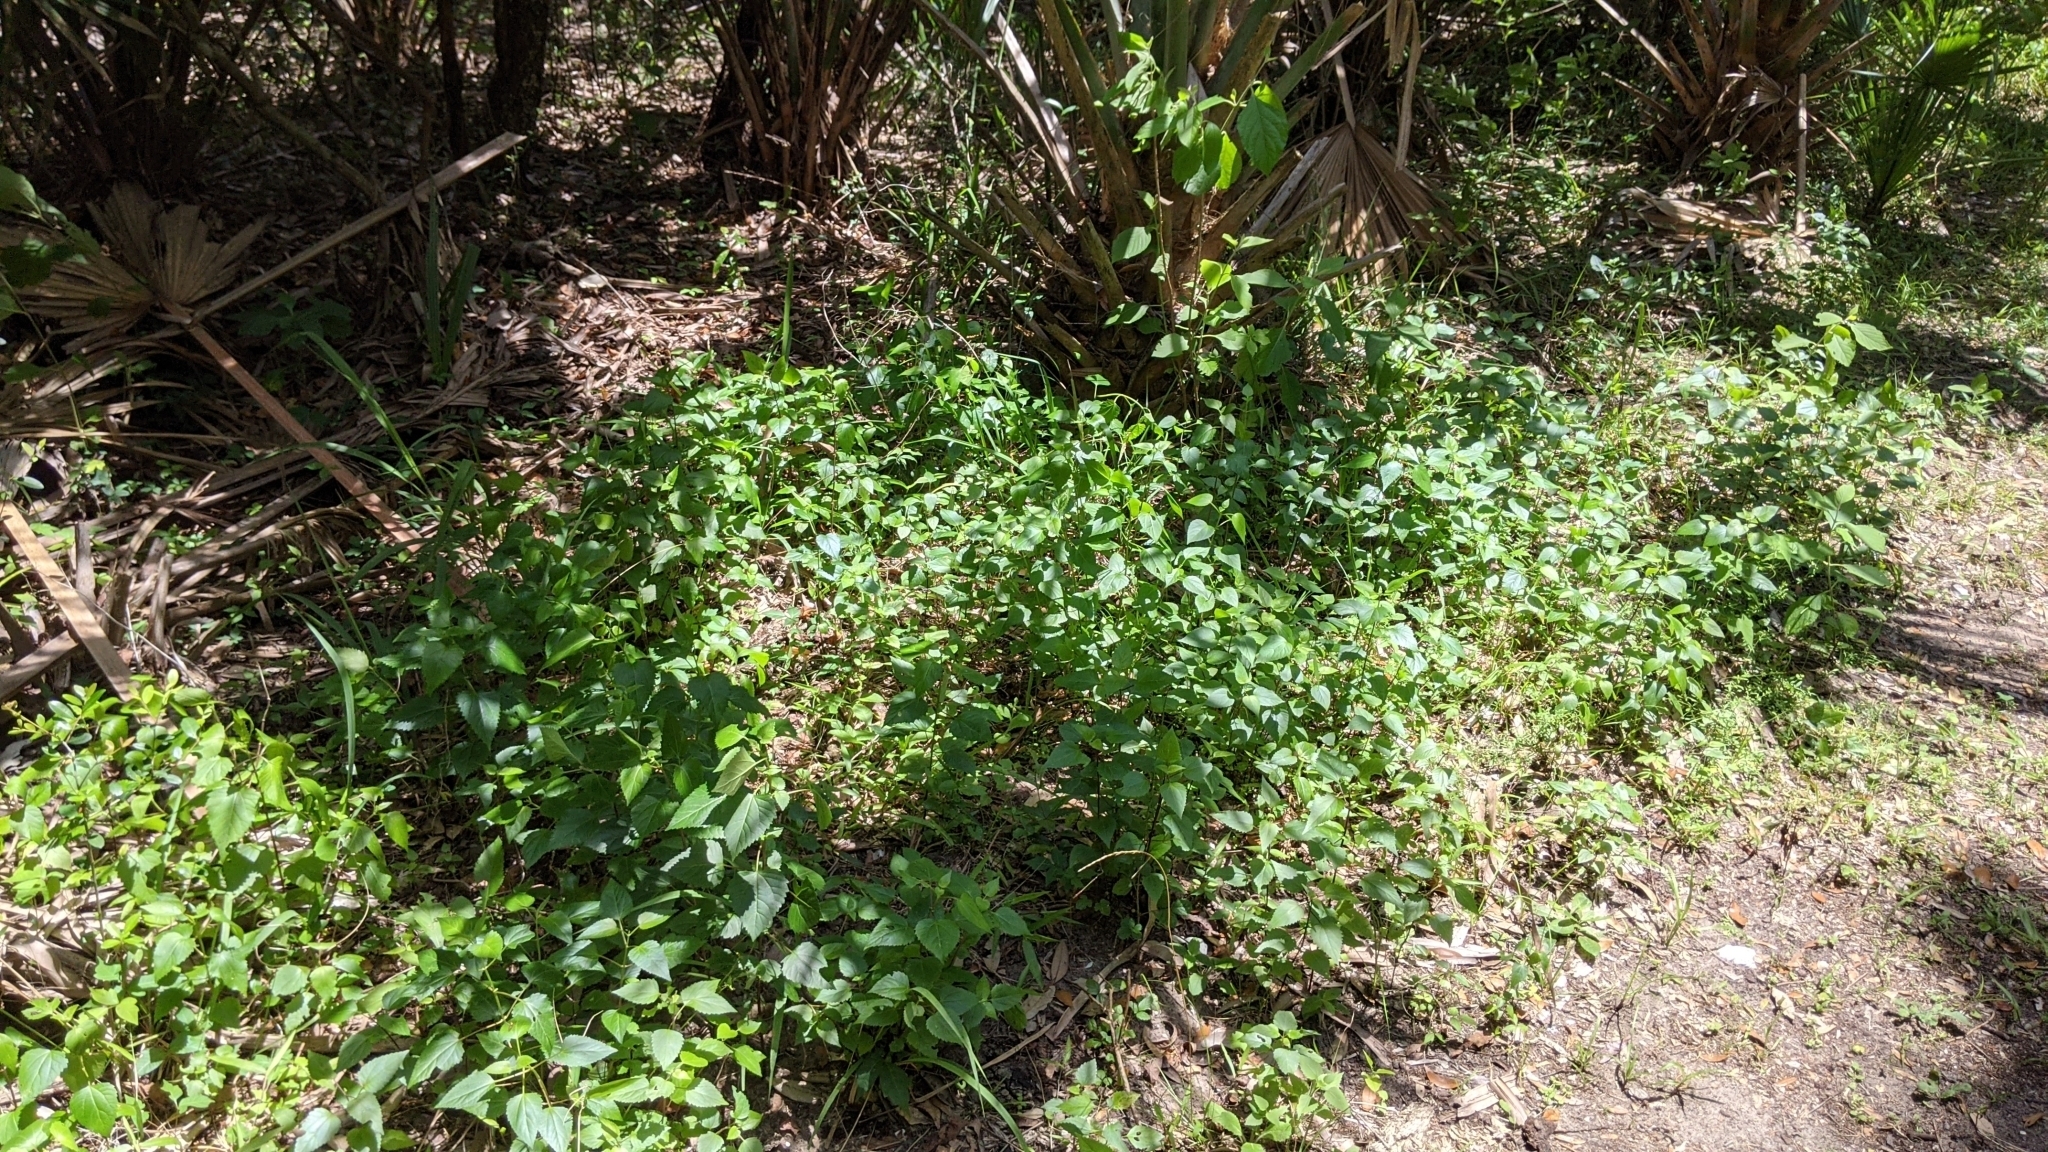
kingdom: Plantae
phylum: Tracheophyta
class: Magnoliopsida
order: Lamiales
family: Lamiaceae
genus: Salvia
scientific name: Salvia coccinea
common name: Blood sage
